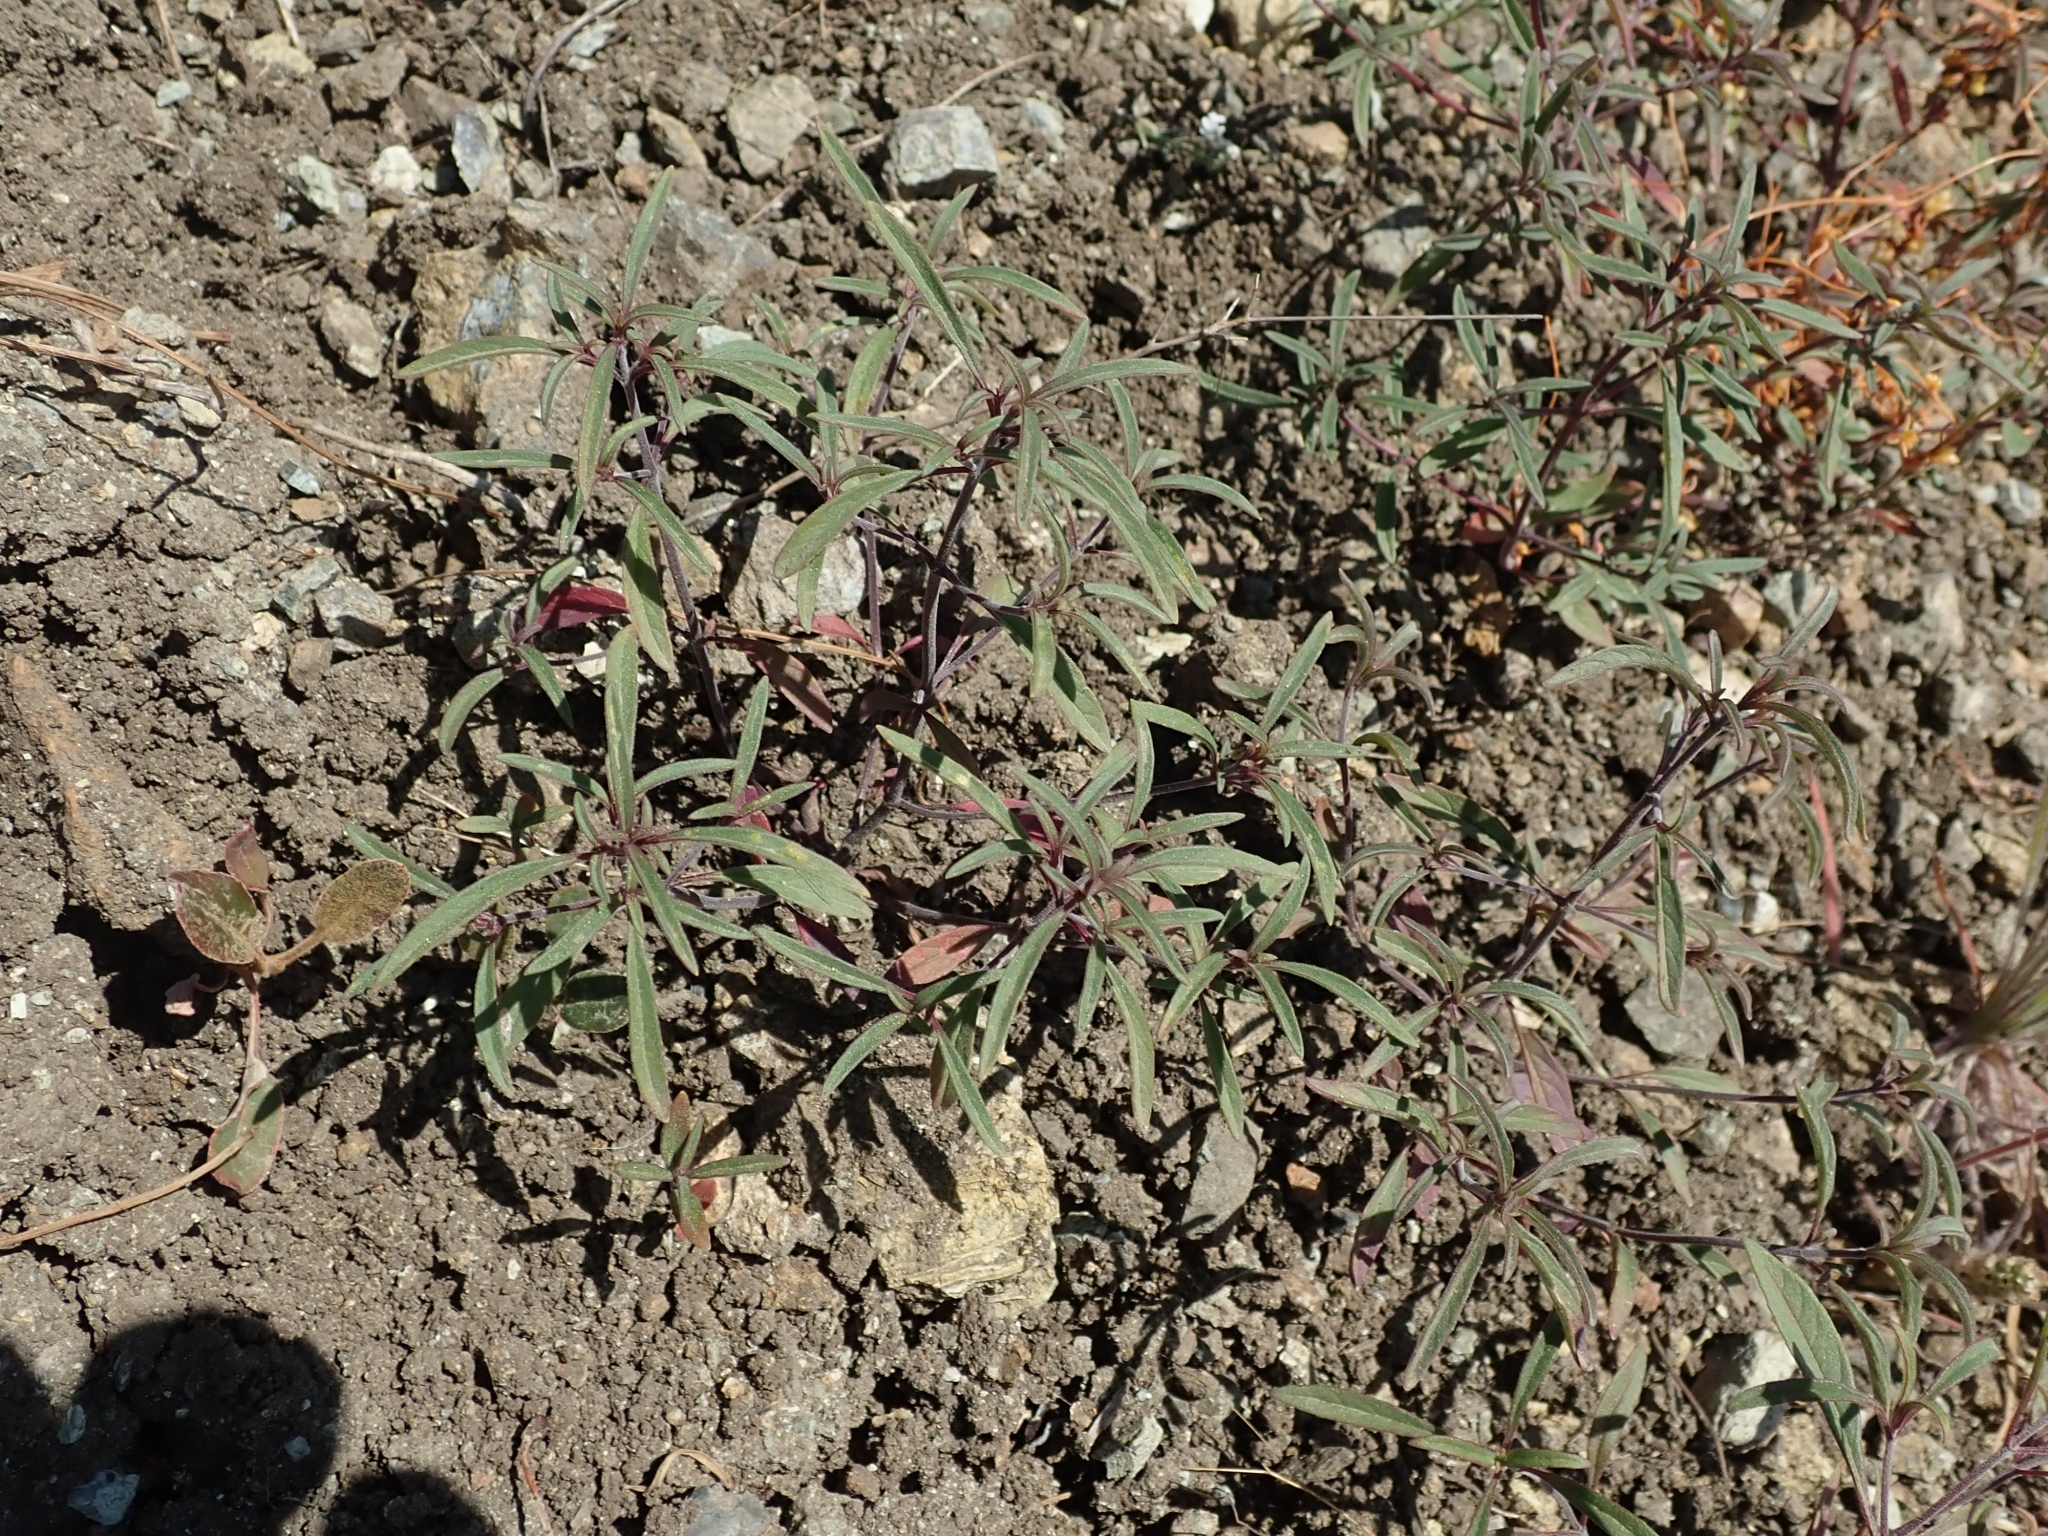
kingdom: Plantae
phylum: Tracheophyta
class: Magnoliopsida
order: Lamiales
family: Lamiaceae
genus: Monardella
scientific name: Monardella douglasii
